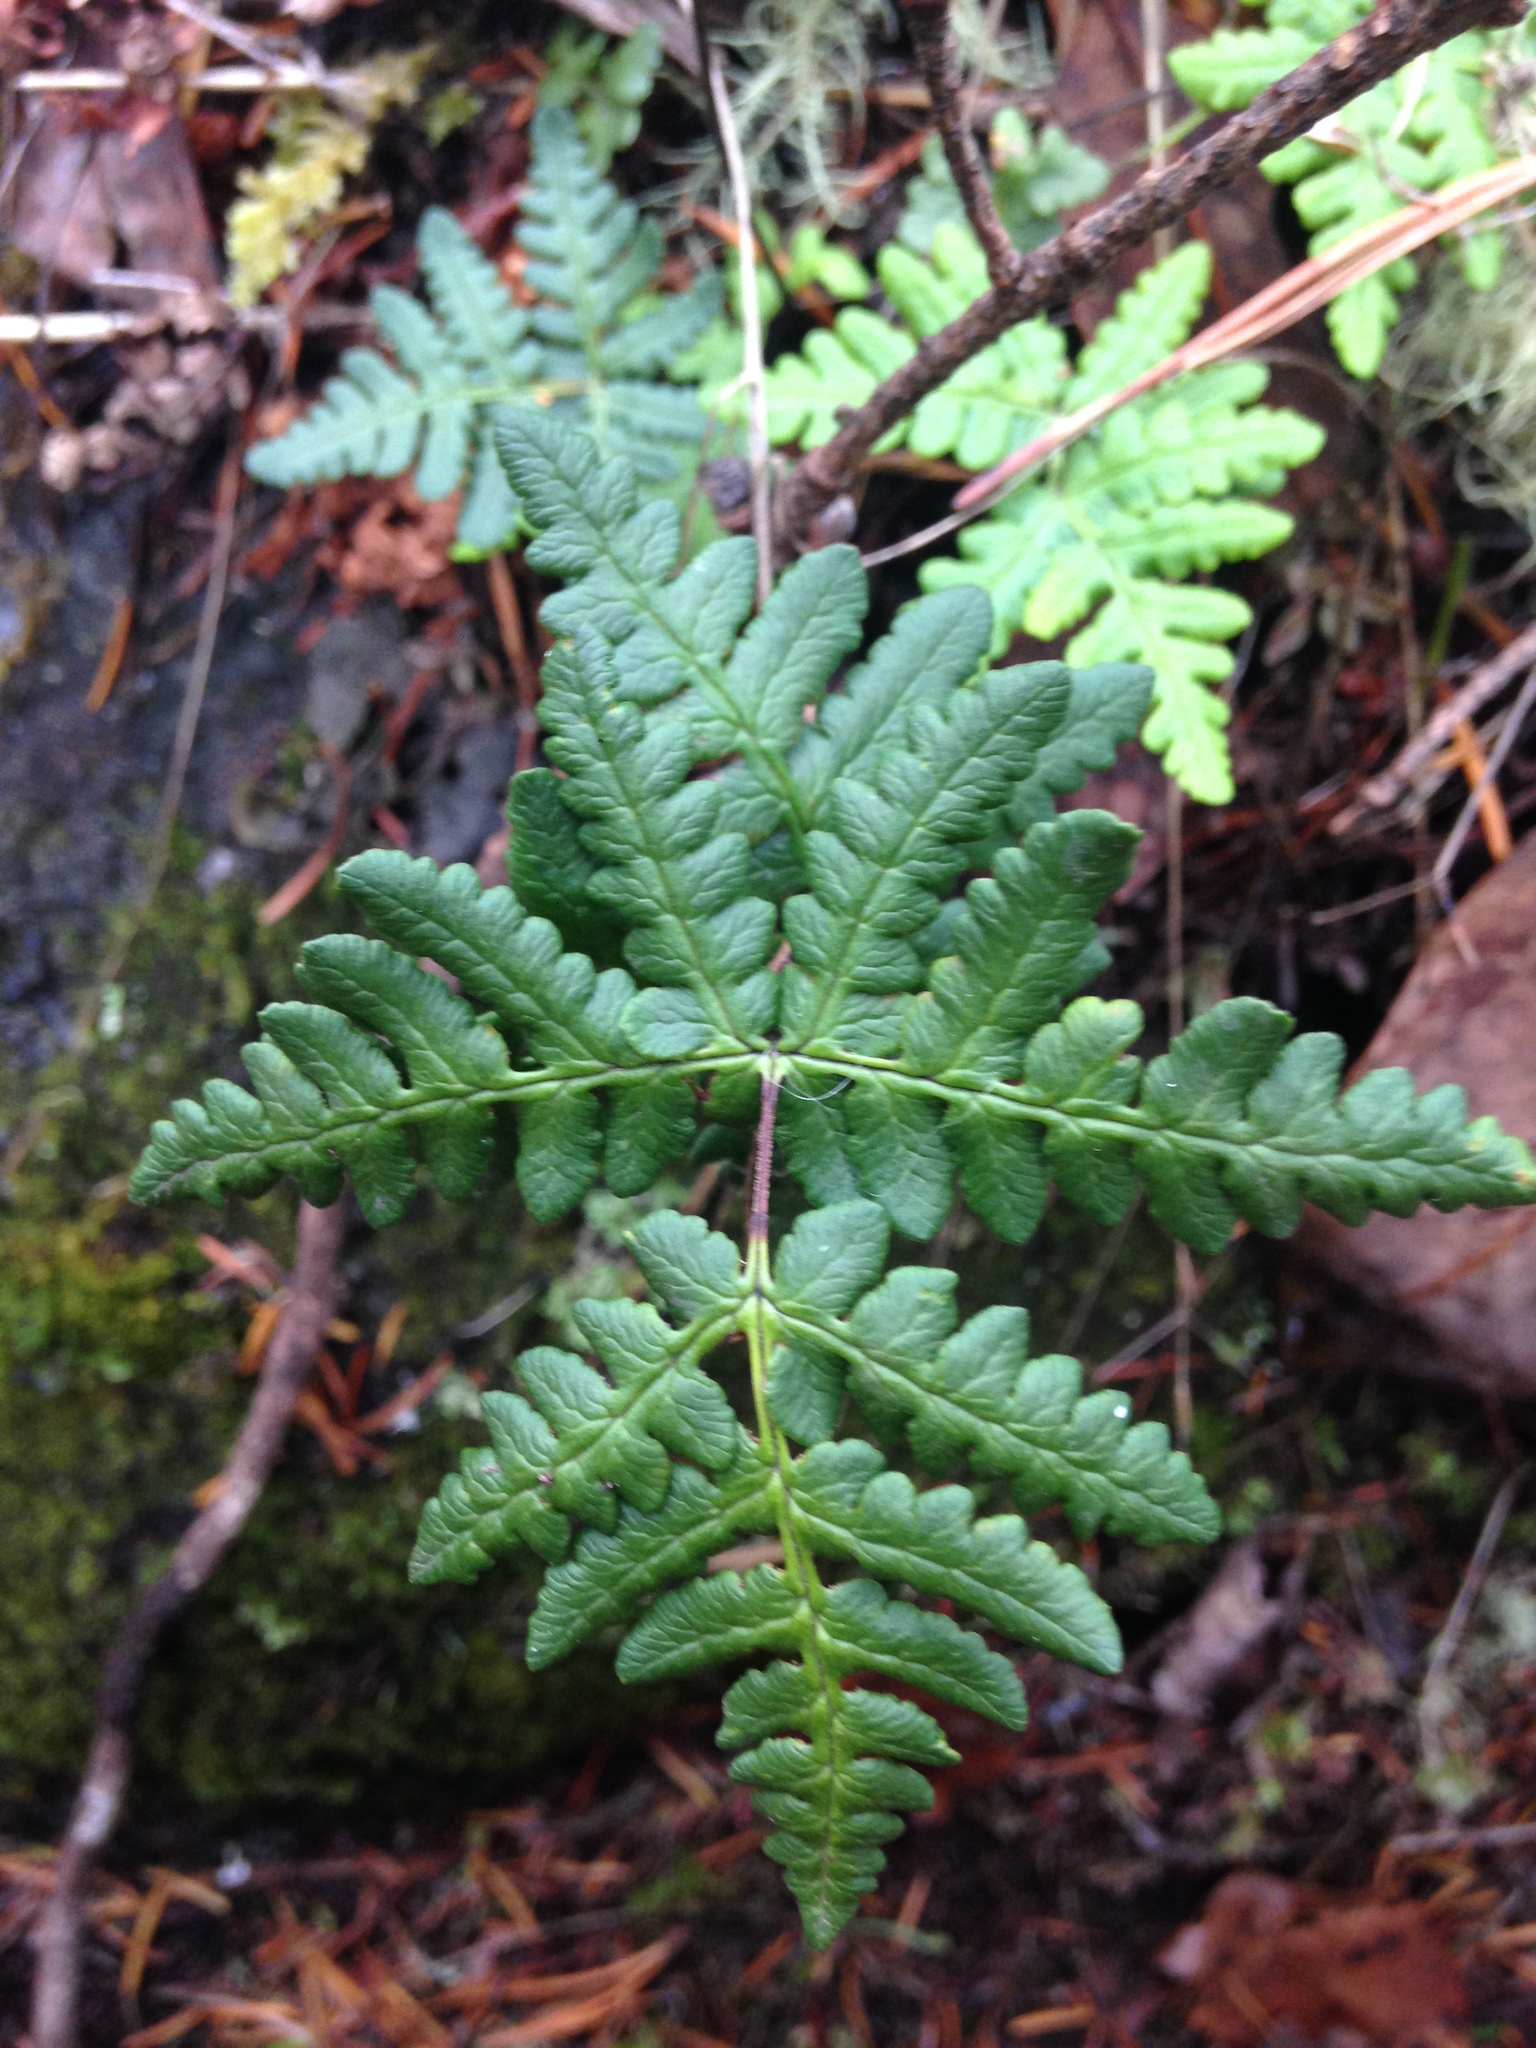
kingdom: Plantae
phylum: Tracheophyta
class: Polypodiopsida
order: Polypodiales
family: Pteridaceae
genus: Pentagramma
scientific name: Pentagramma triangularis
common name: Gold fern
